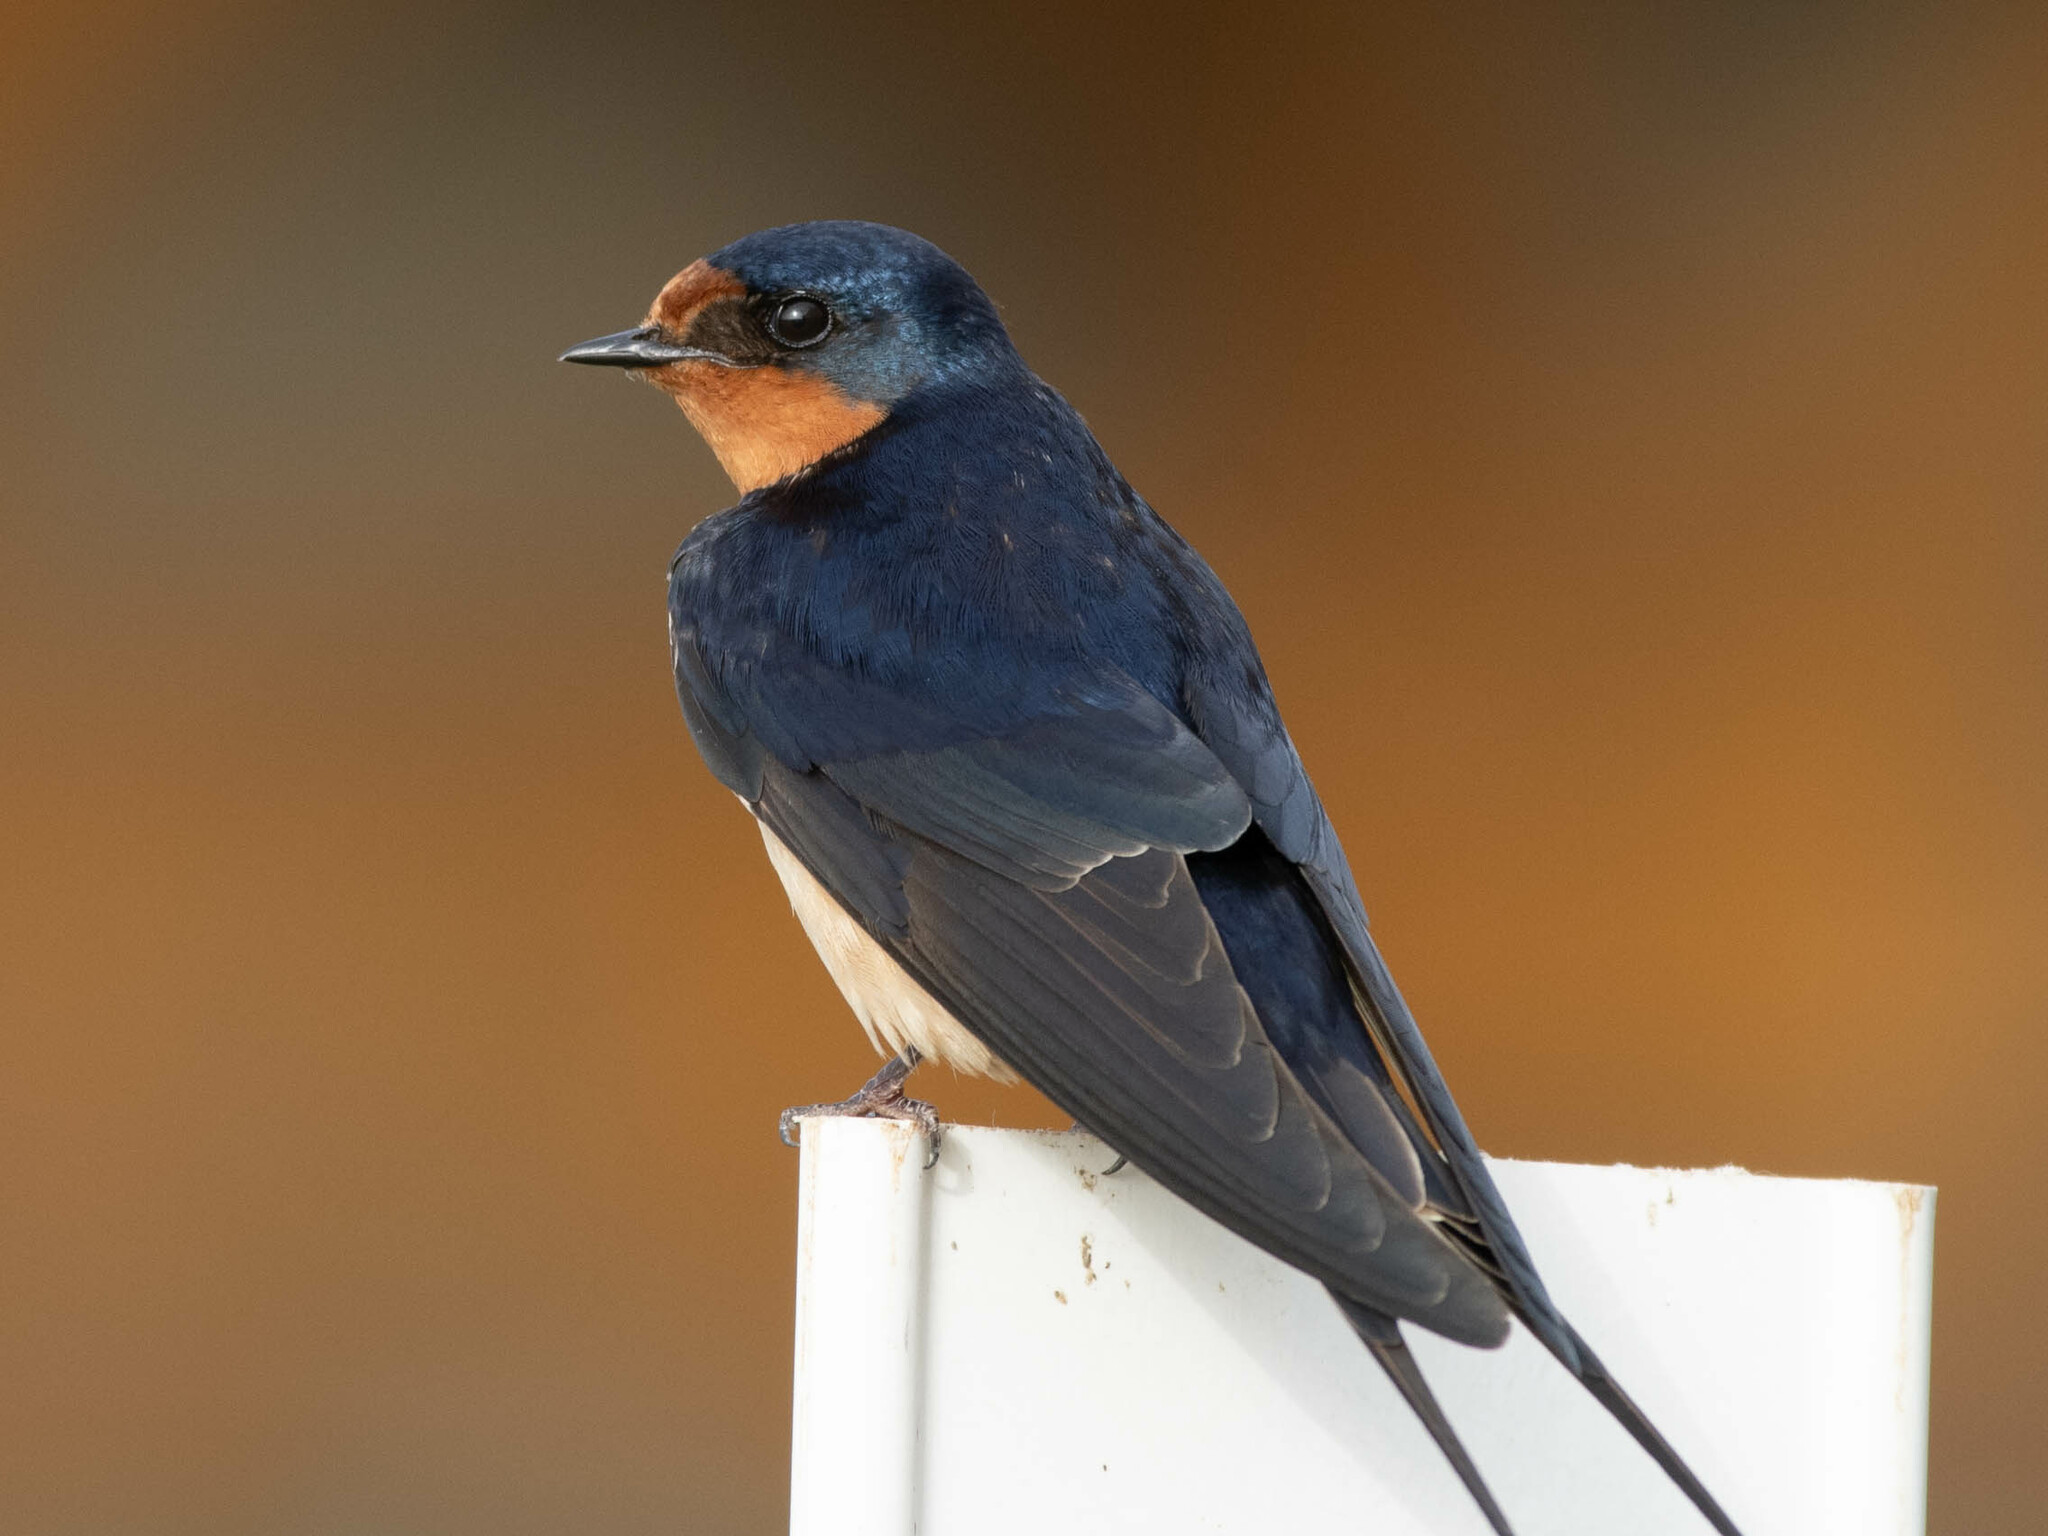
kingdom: Animalia
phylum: Chordata
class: Aves
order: Passeriformes
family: Hirundinidae
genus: Hirundo
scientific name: Hirundo rustica
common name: Barn swallow
